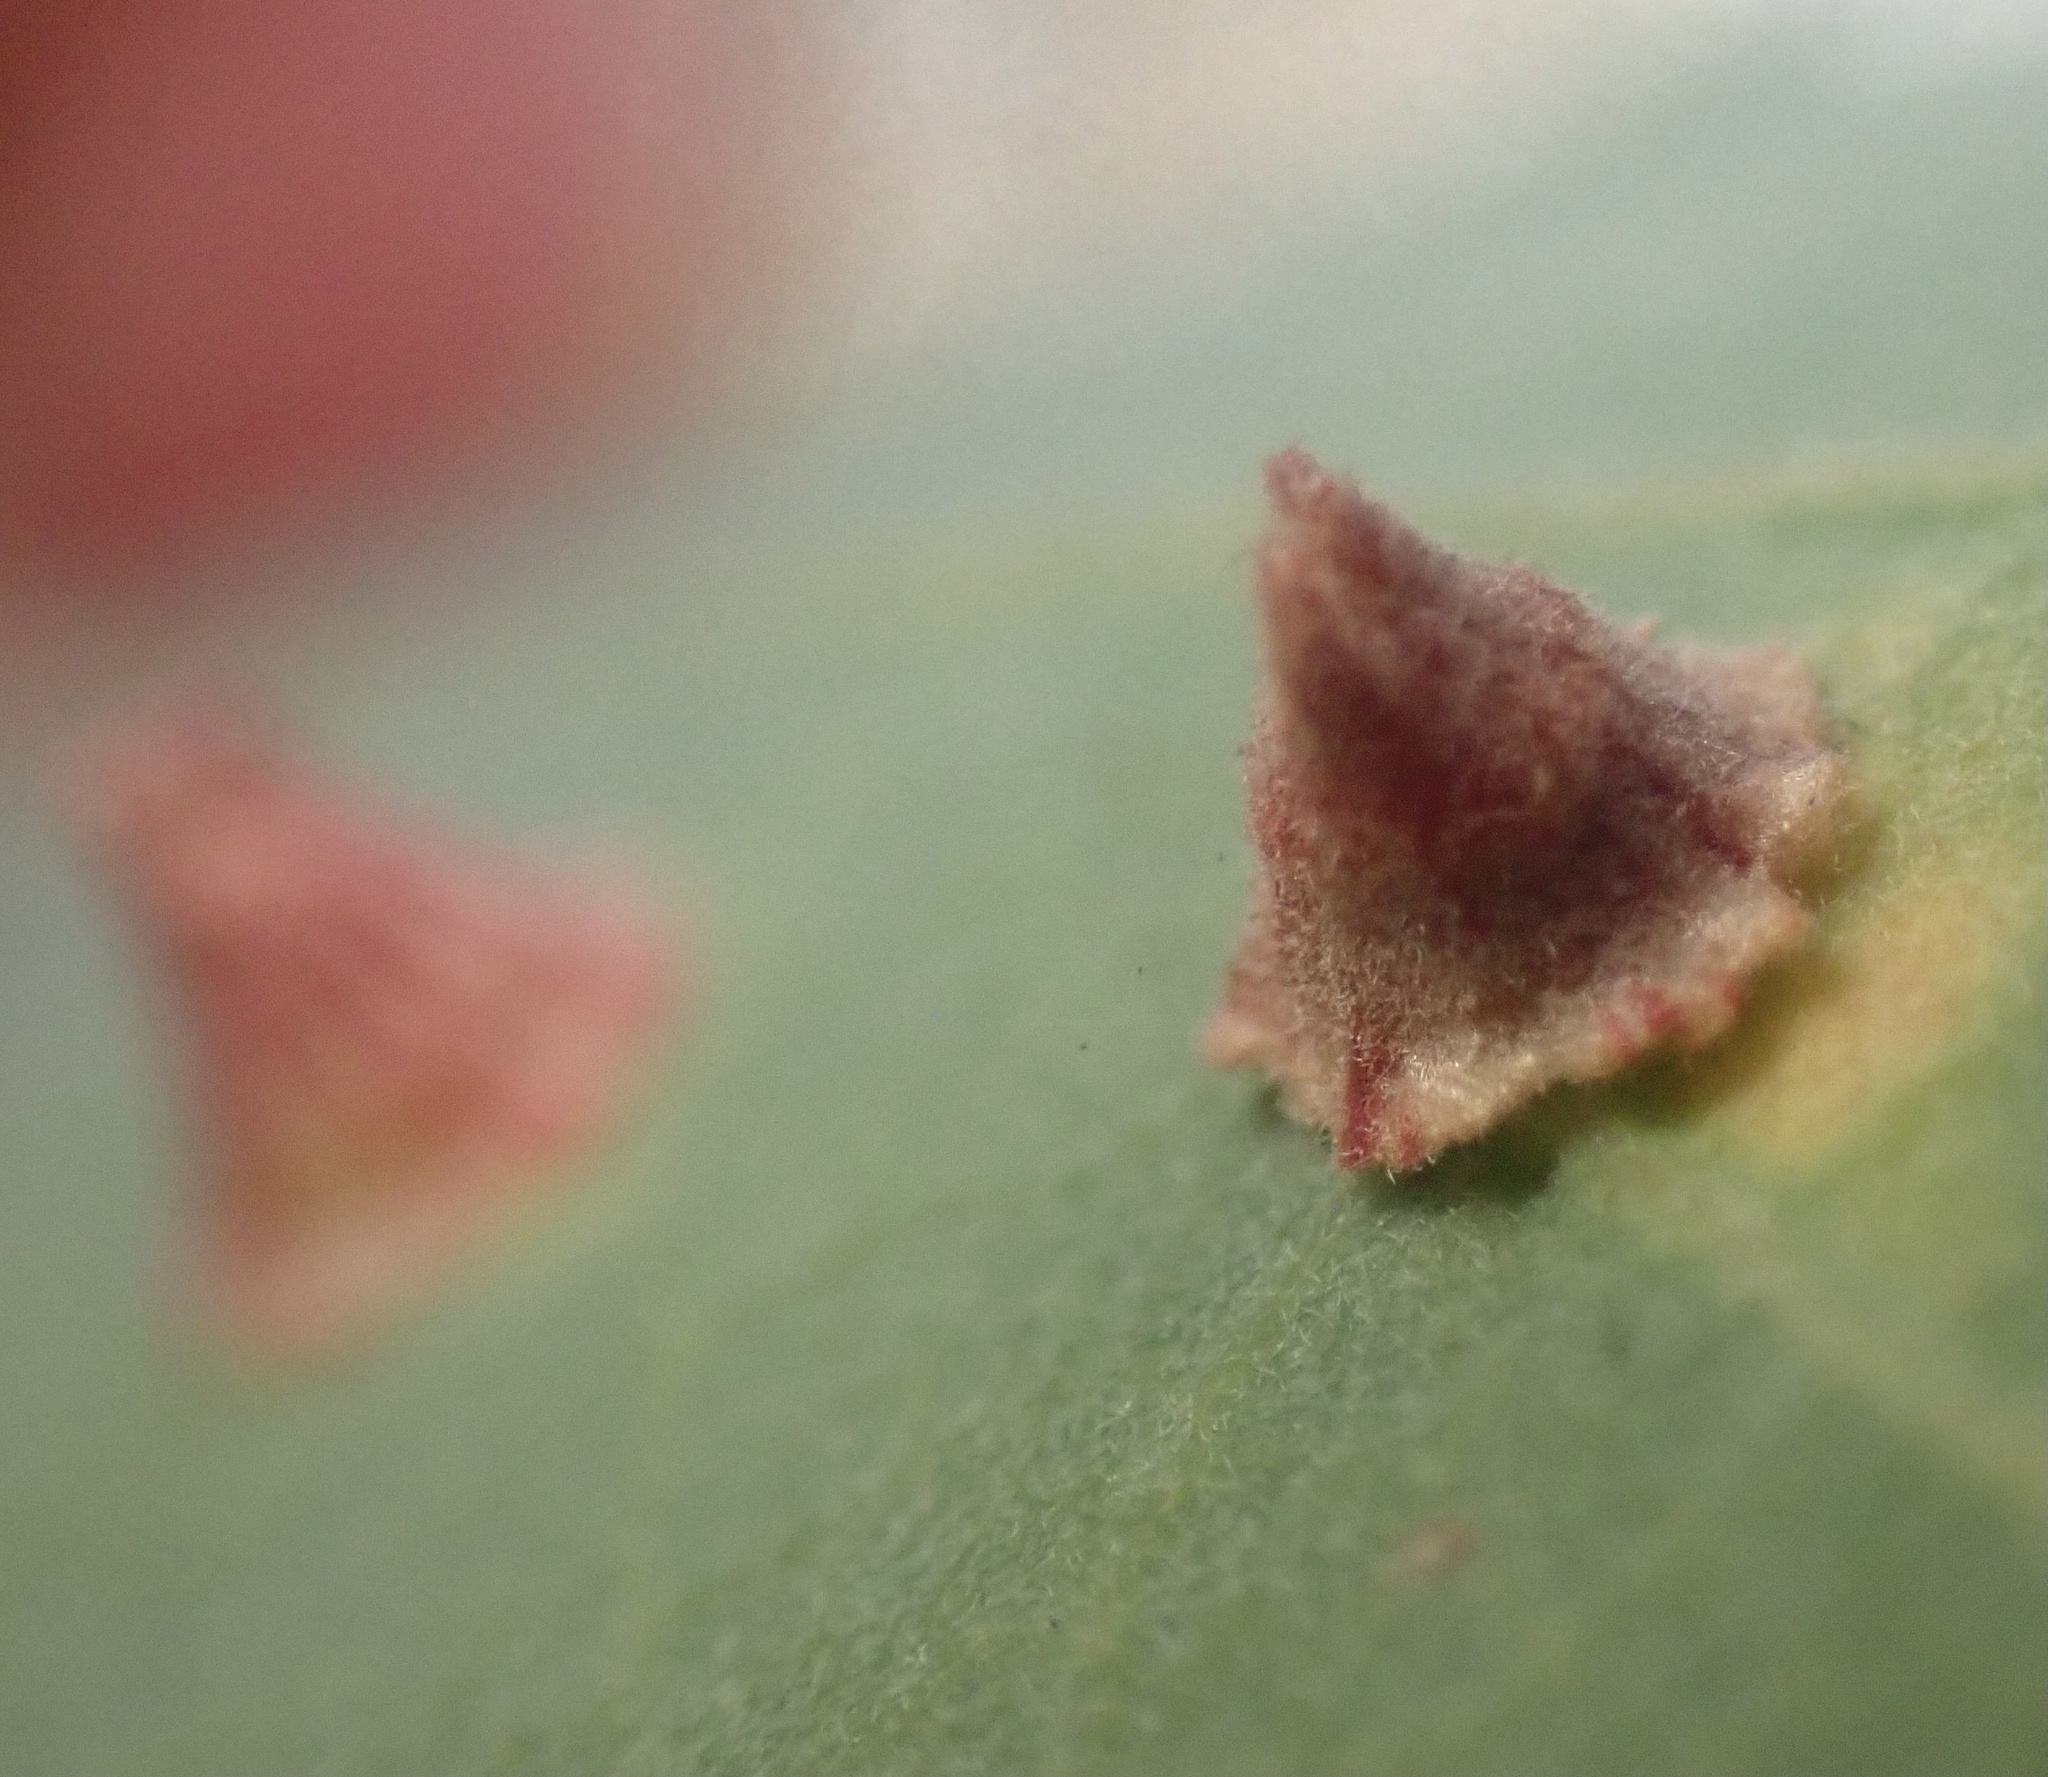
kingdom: Animalia
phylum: Arthropoda
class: Insecta
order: Hymenoptera
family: Cynipidae
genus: Andricus
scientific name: Andricus
